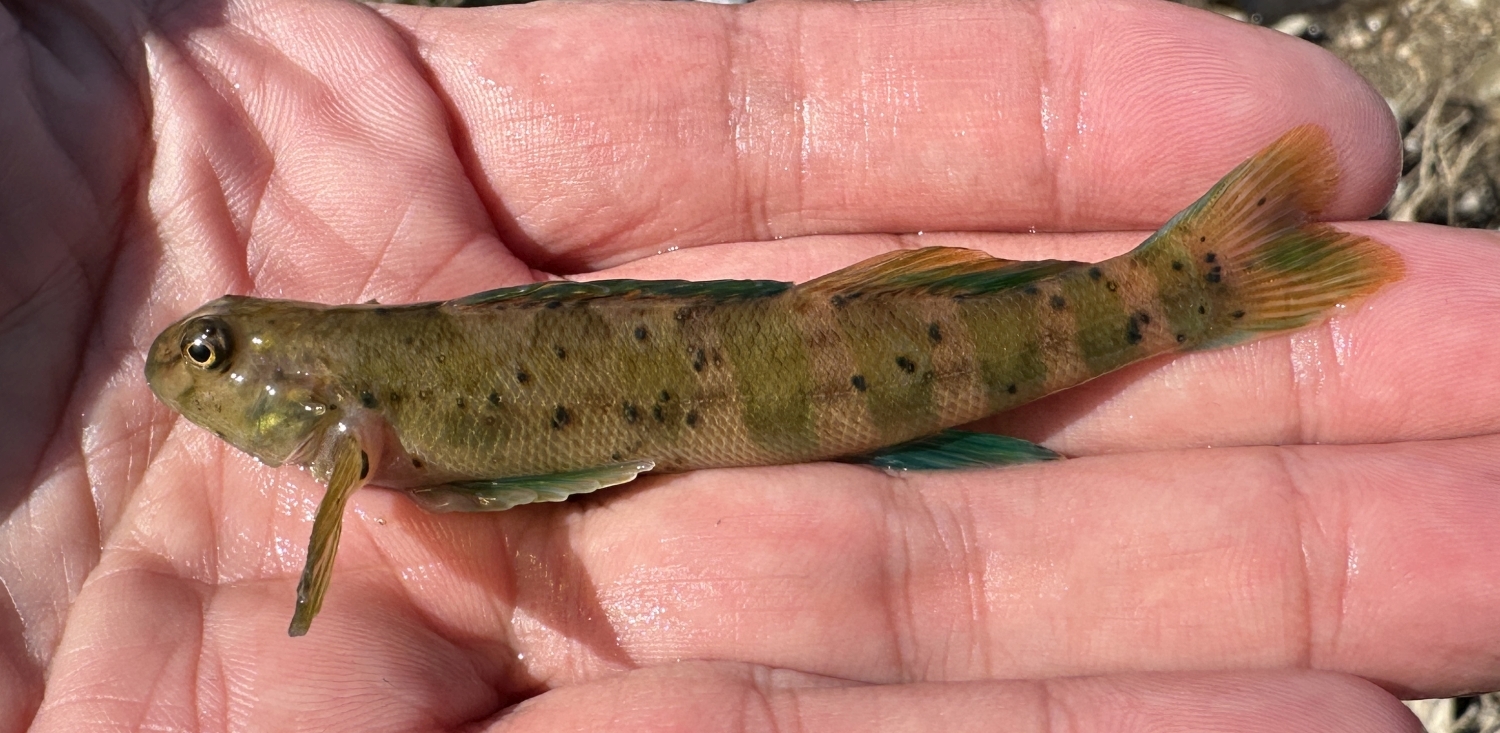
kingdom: Animalia
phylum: Chordata
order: Perciformes
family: Percidae
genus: Etheostoma
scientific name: Etheostoma blennioides
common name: Greenside darter
